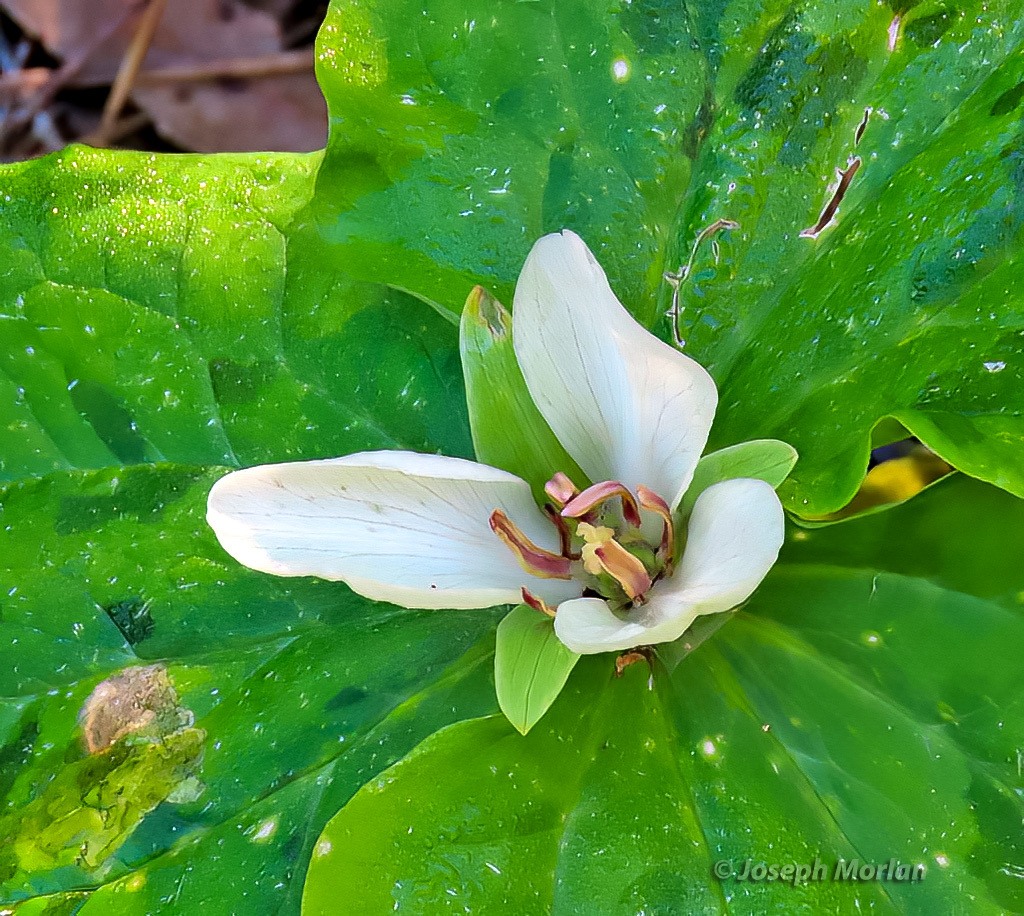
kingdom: Plantae
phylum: Tracheophyta
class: Liliopsida
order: Liliales
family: Melanthiaceae
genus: Trillium
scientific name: Trillium chloropetalum
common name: Giant trillium
